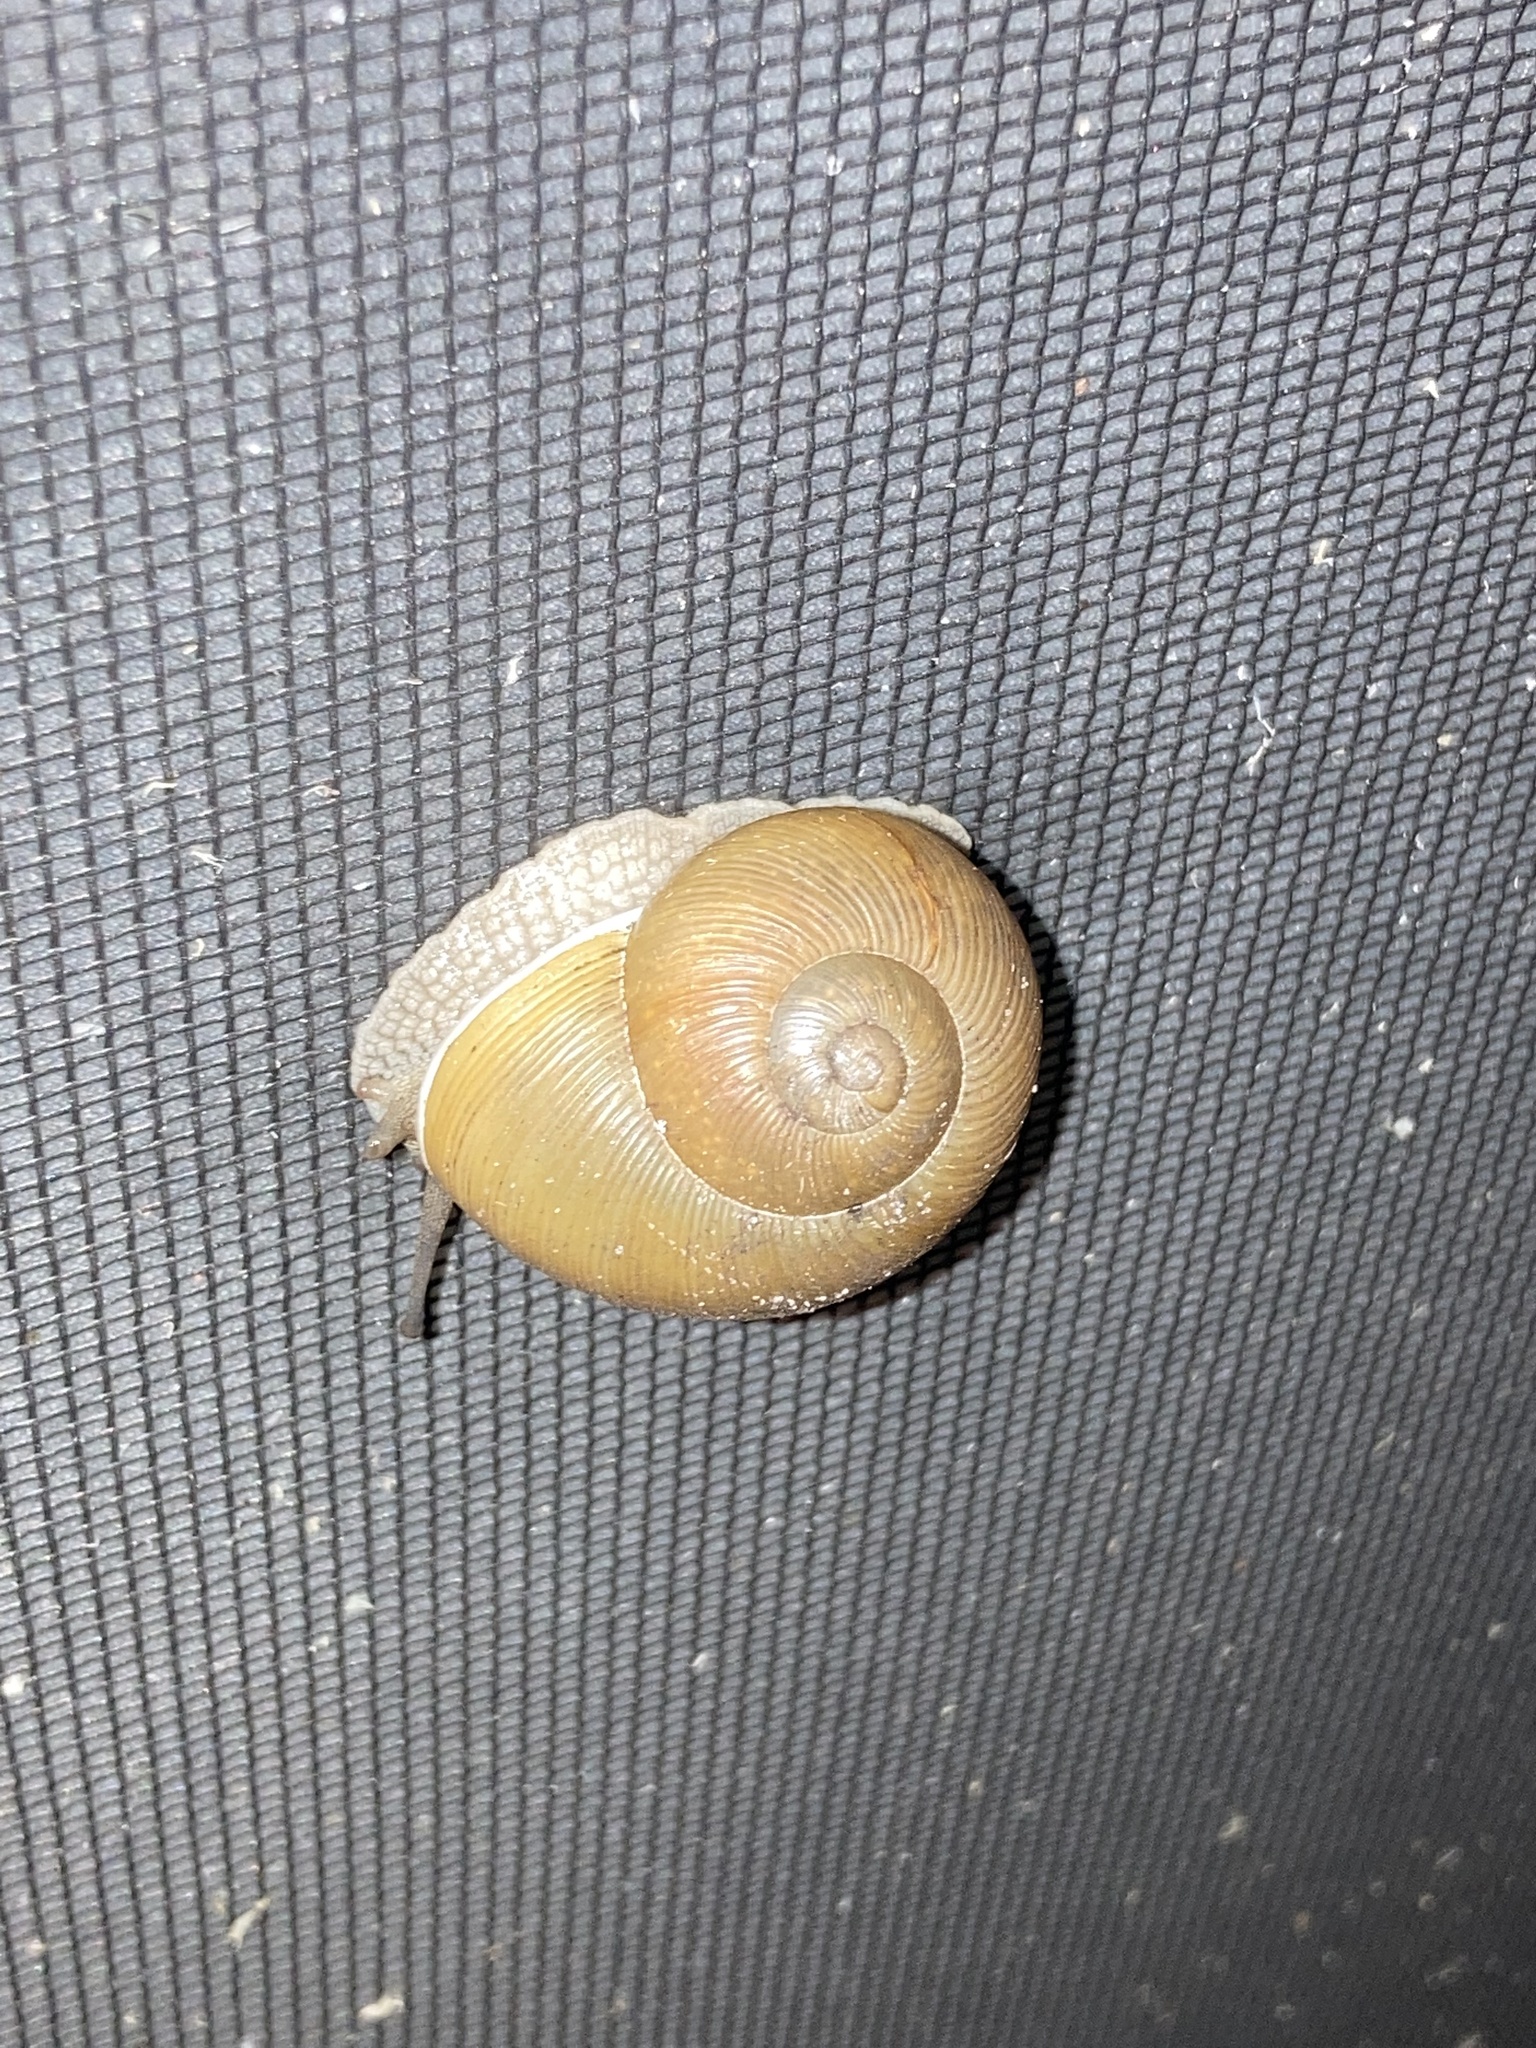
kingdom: Animalia
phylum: Mollusca
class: Gastropoda
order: Stylommatophora
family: Zachrysiidae
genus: Zachrysia
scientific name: Zachrysia provisoria
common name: Garden zachrysia
